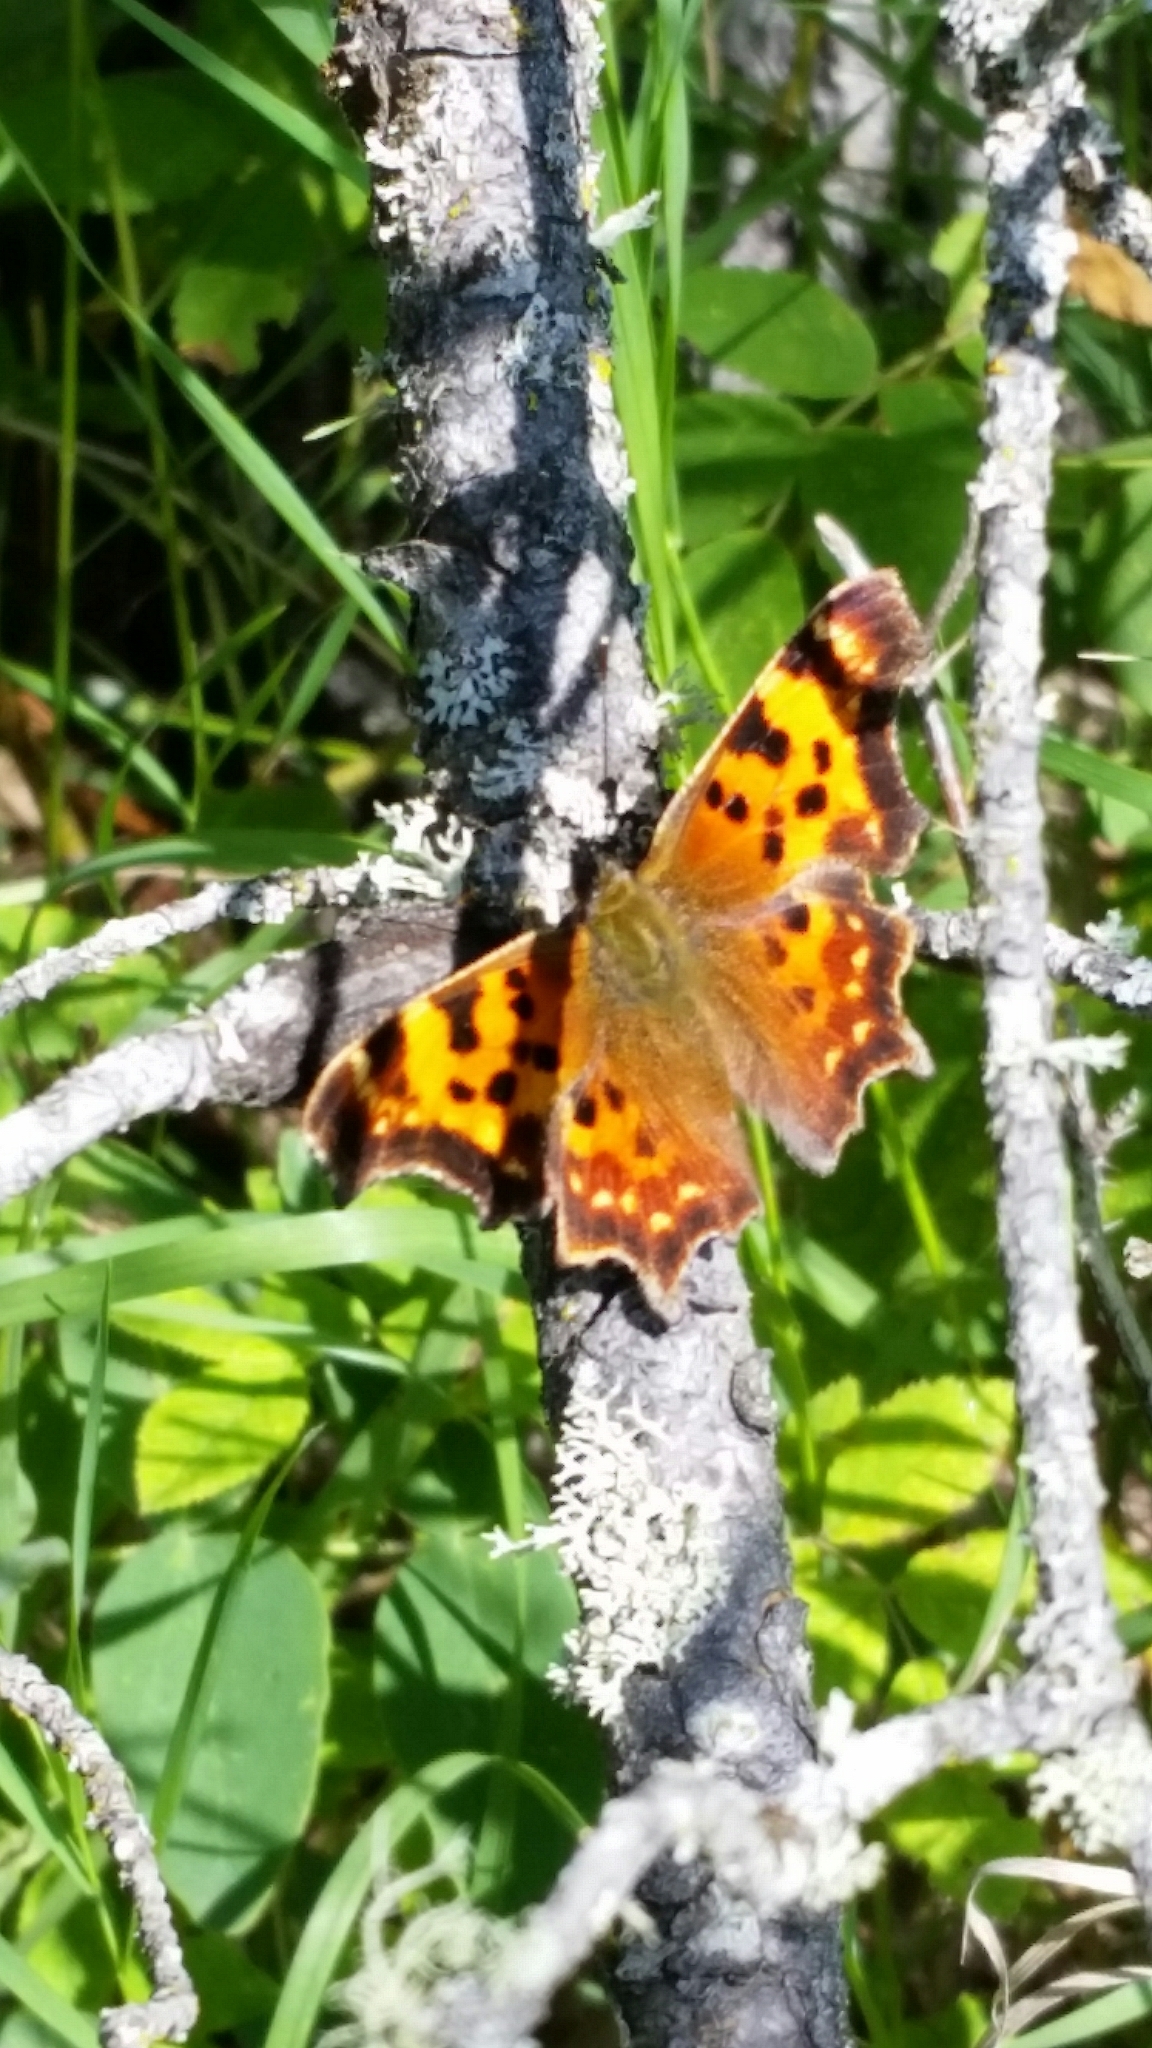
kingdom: Animalia
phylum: Arthropoda
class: Insecta
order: Lepidoptera
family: Nymphalidae
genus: Polygonia
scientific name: Polygonia faunus
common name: Green comma
